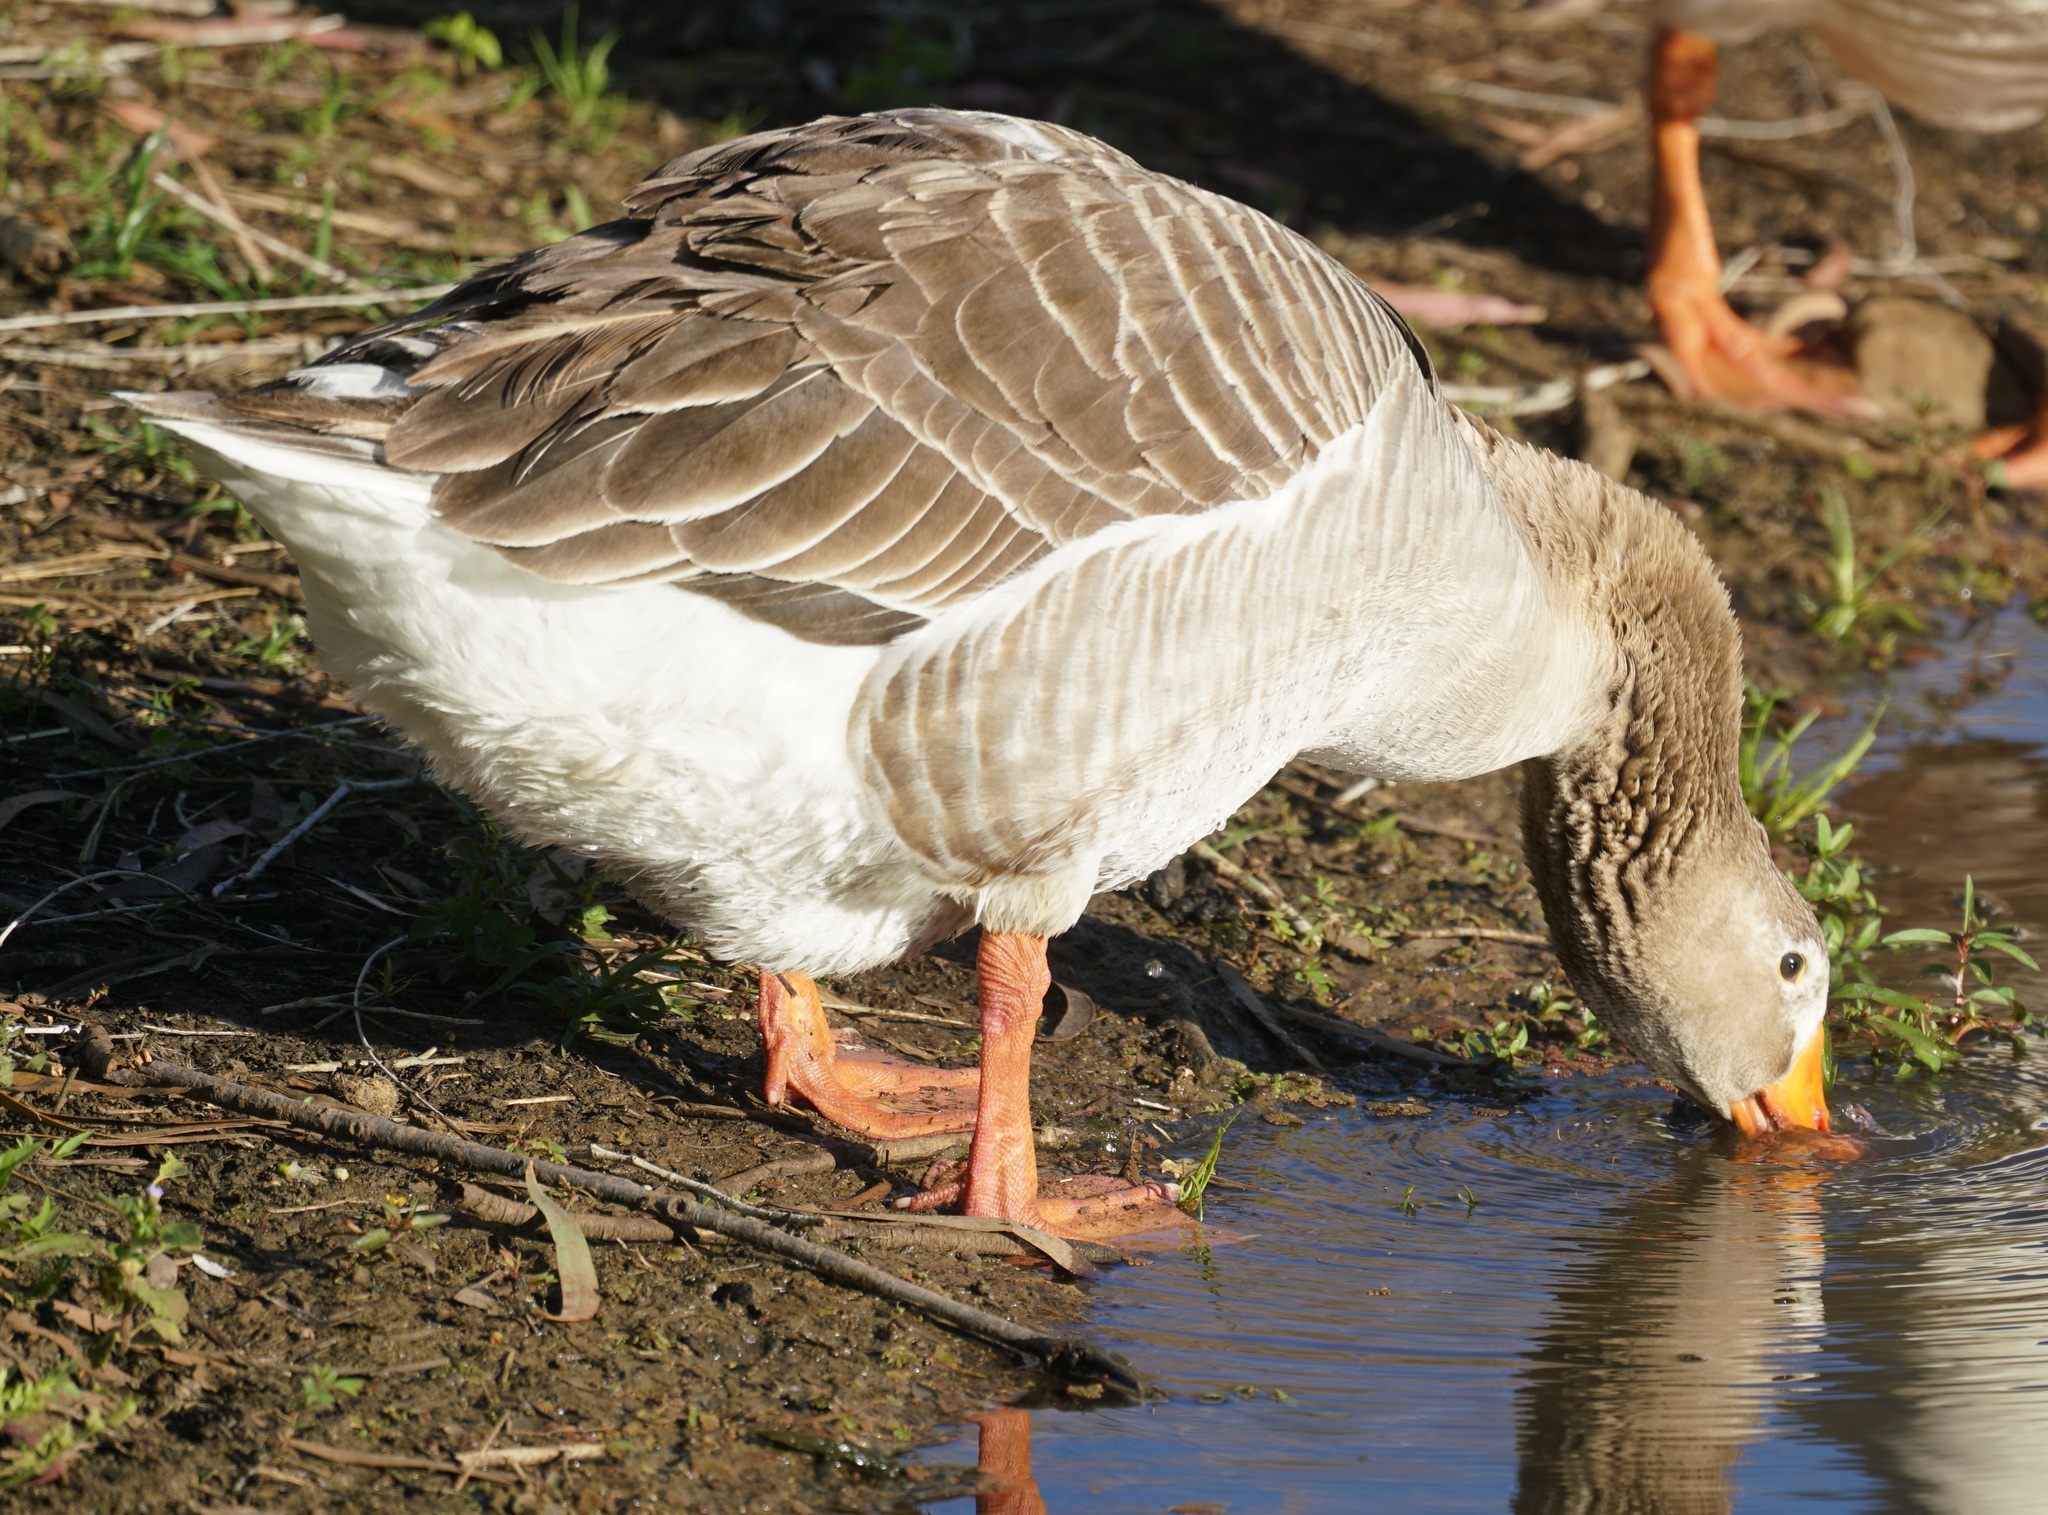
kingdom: Animalia
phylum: Chordata
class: Aves
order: Anseriformes
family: Anatidae
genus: Anser
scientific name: Anser anser
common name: Greylag goose
